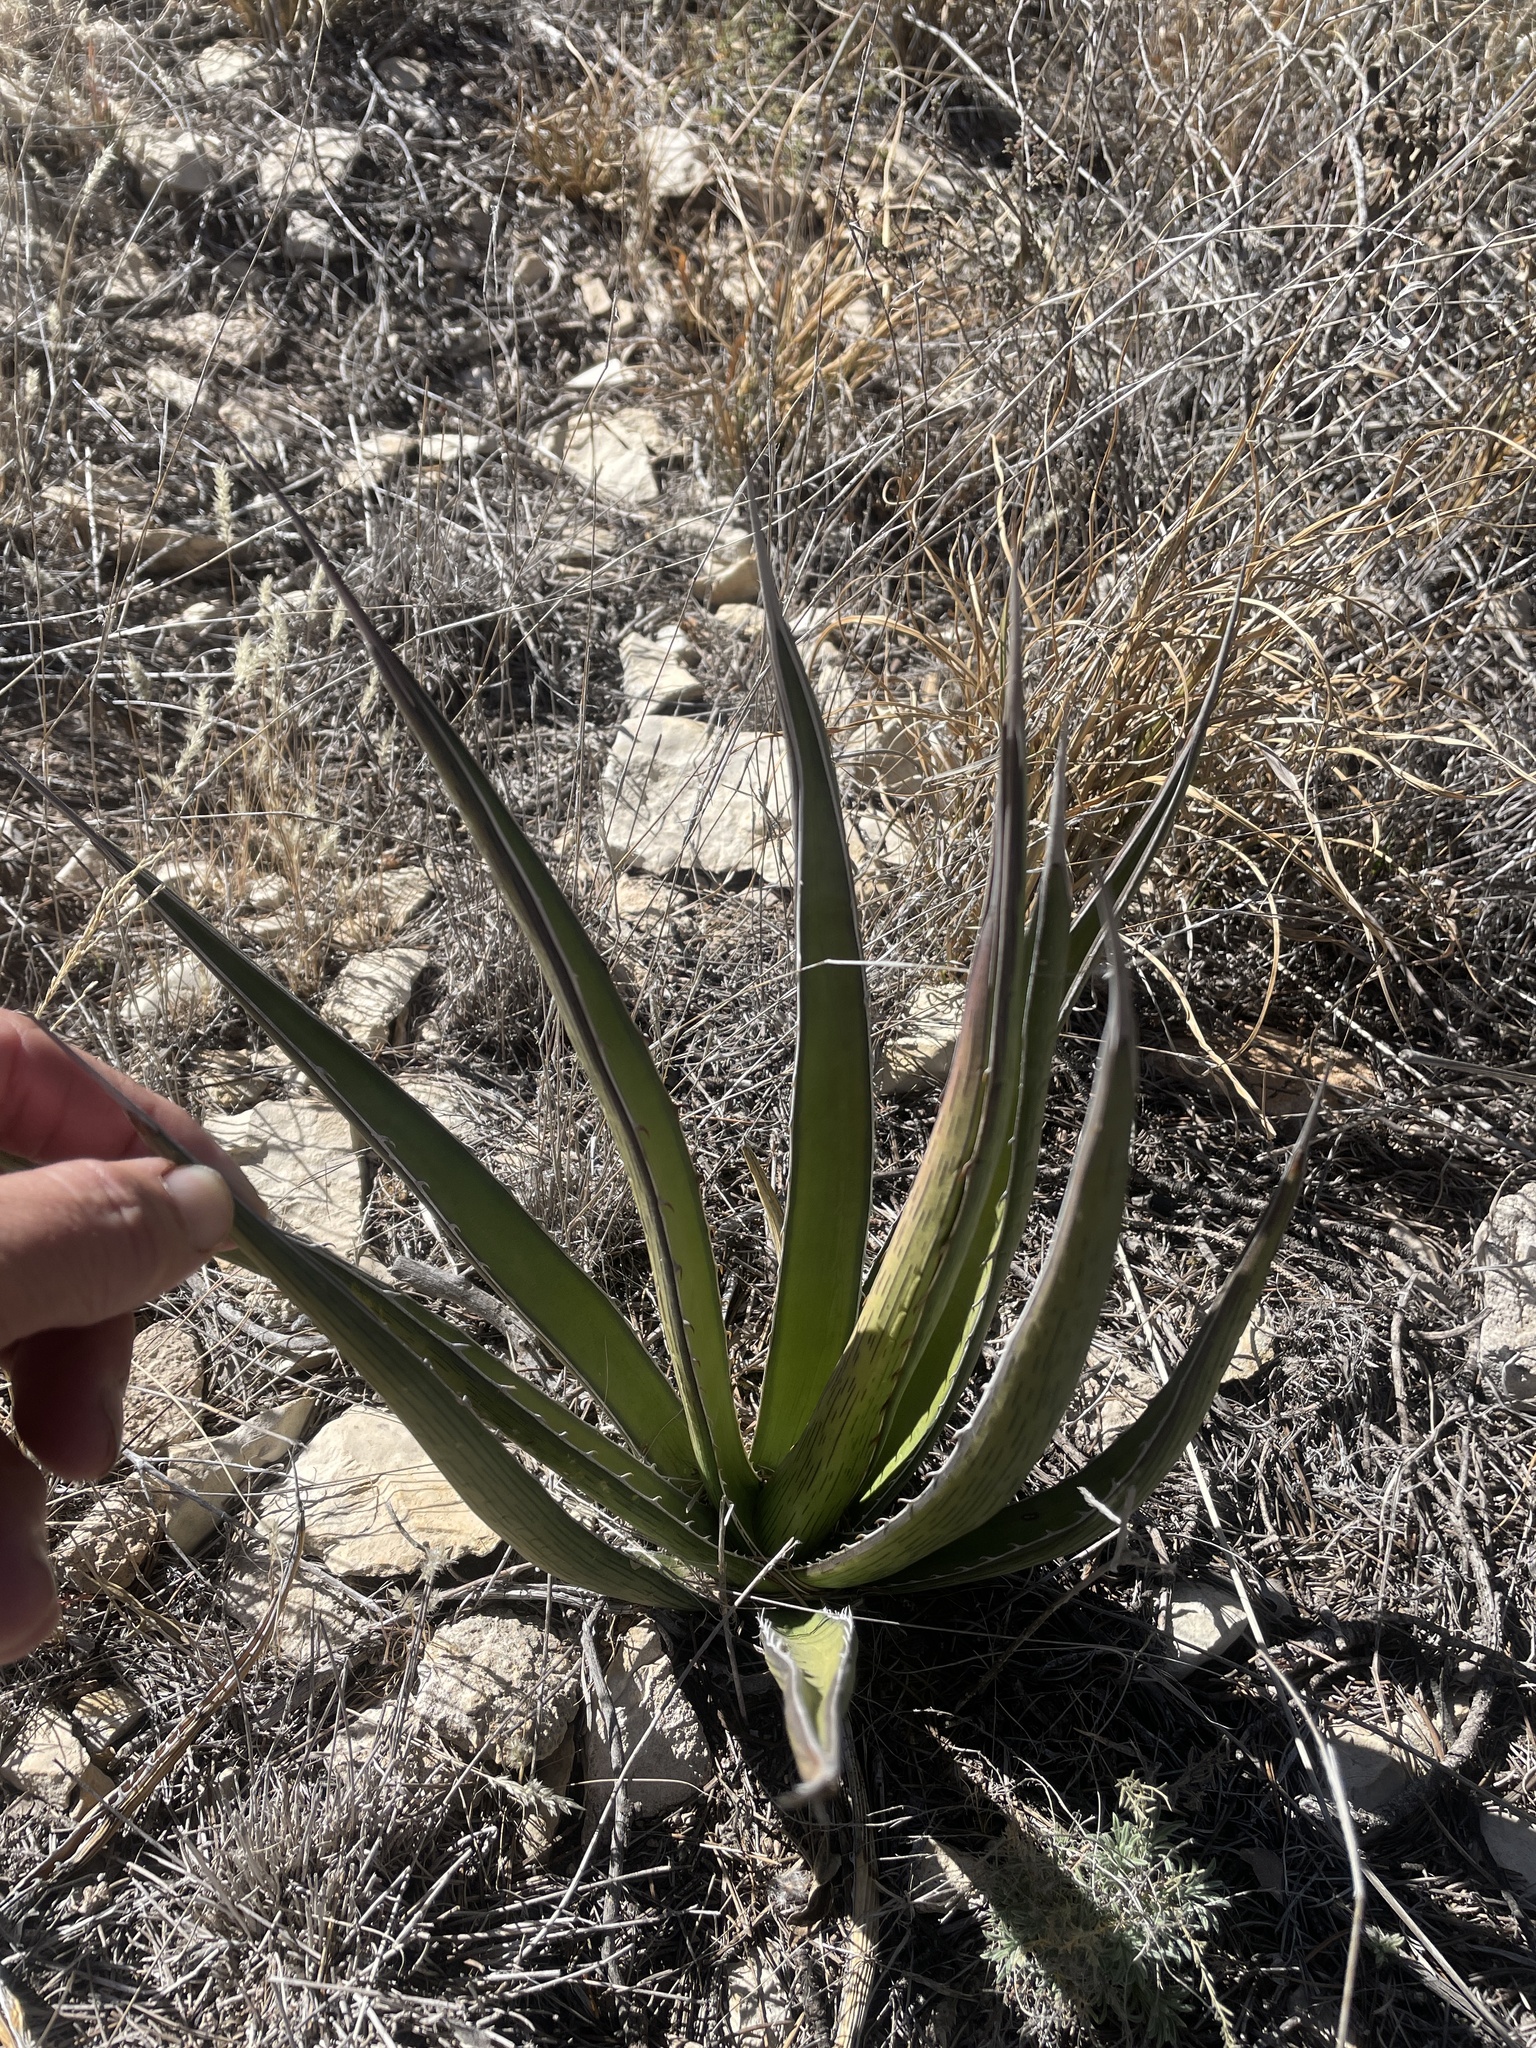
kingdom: Plantae
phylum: Tracheophyta
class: Liliopsida
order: Asparagales
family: Asparagaceae
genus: Agave
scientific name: Agave lechuguilla
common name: Lecheguilla agave
